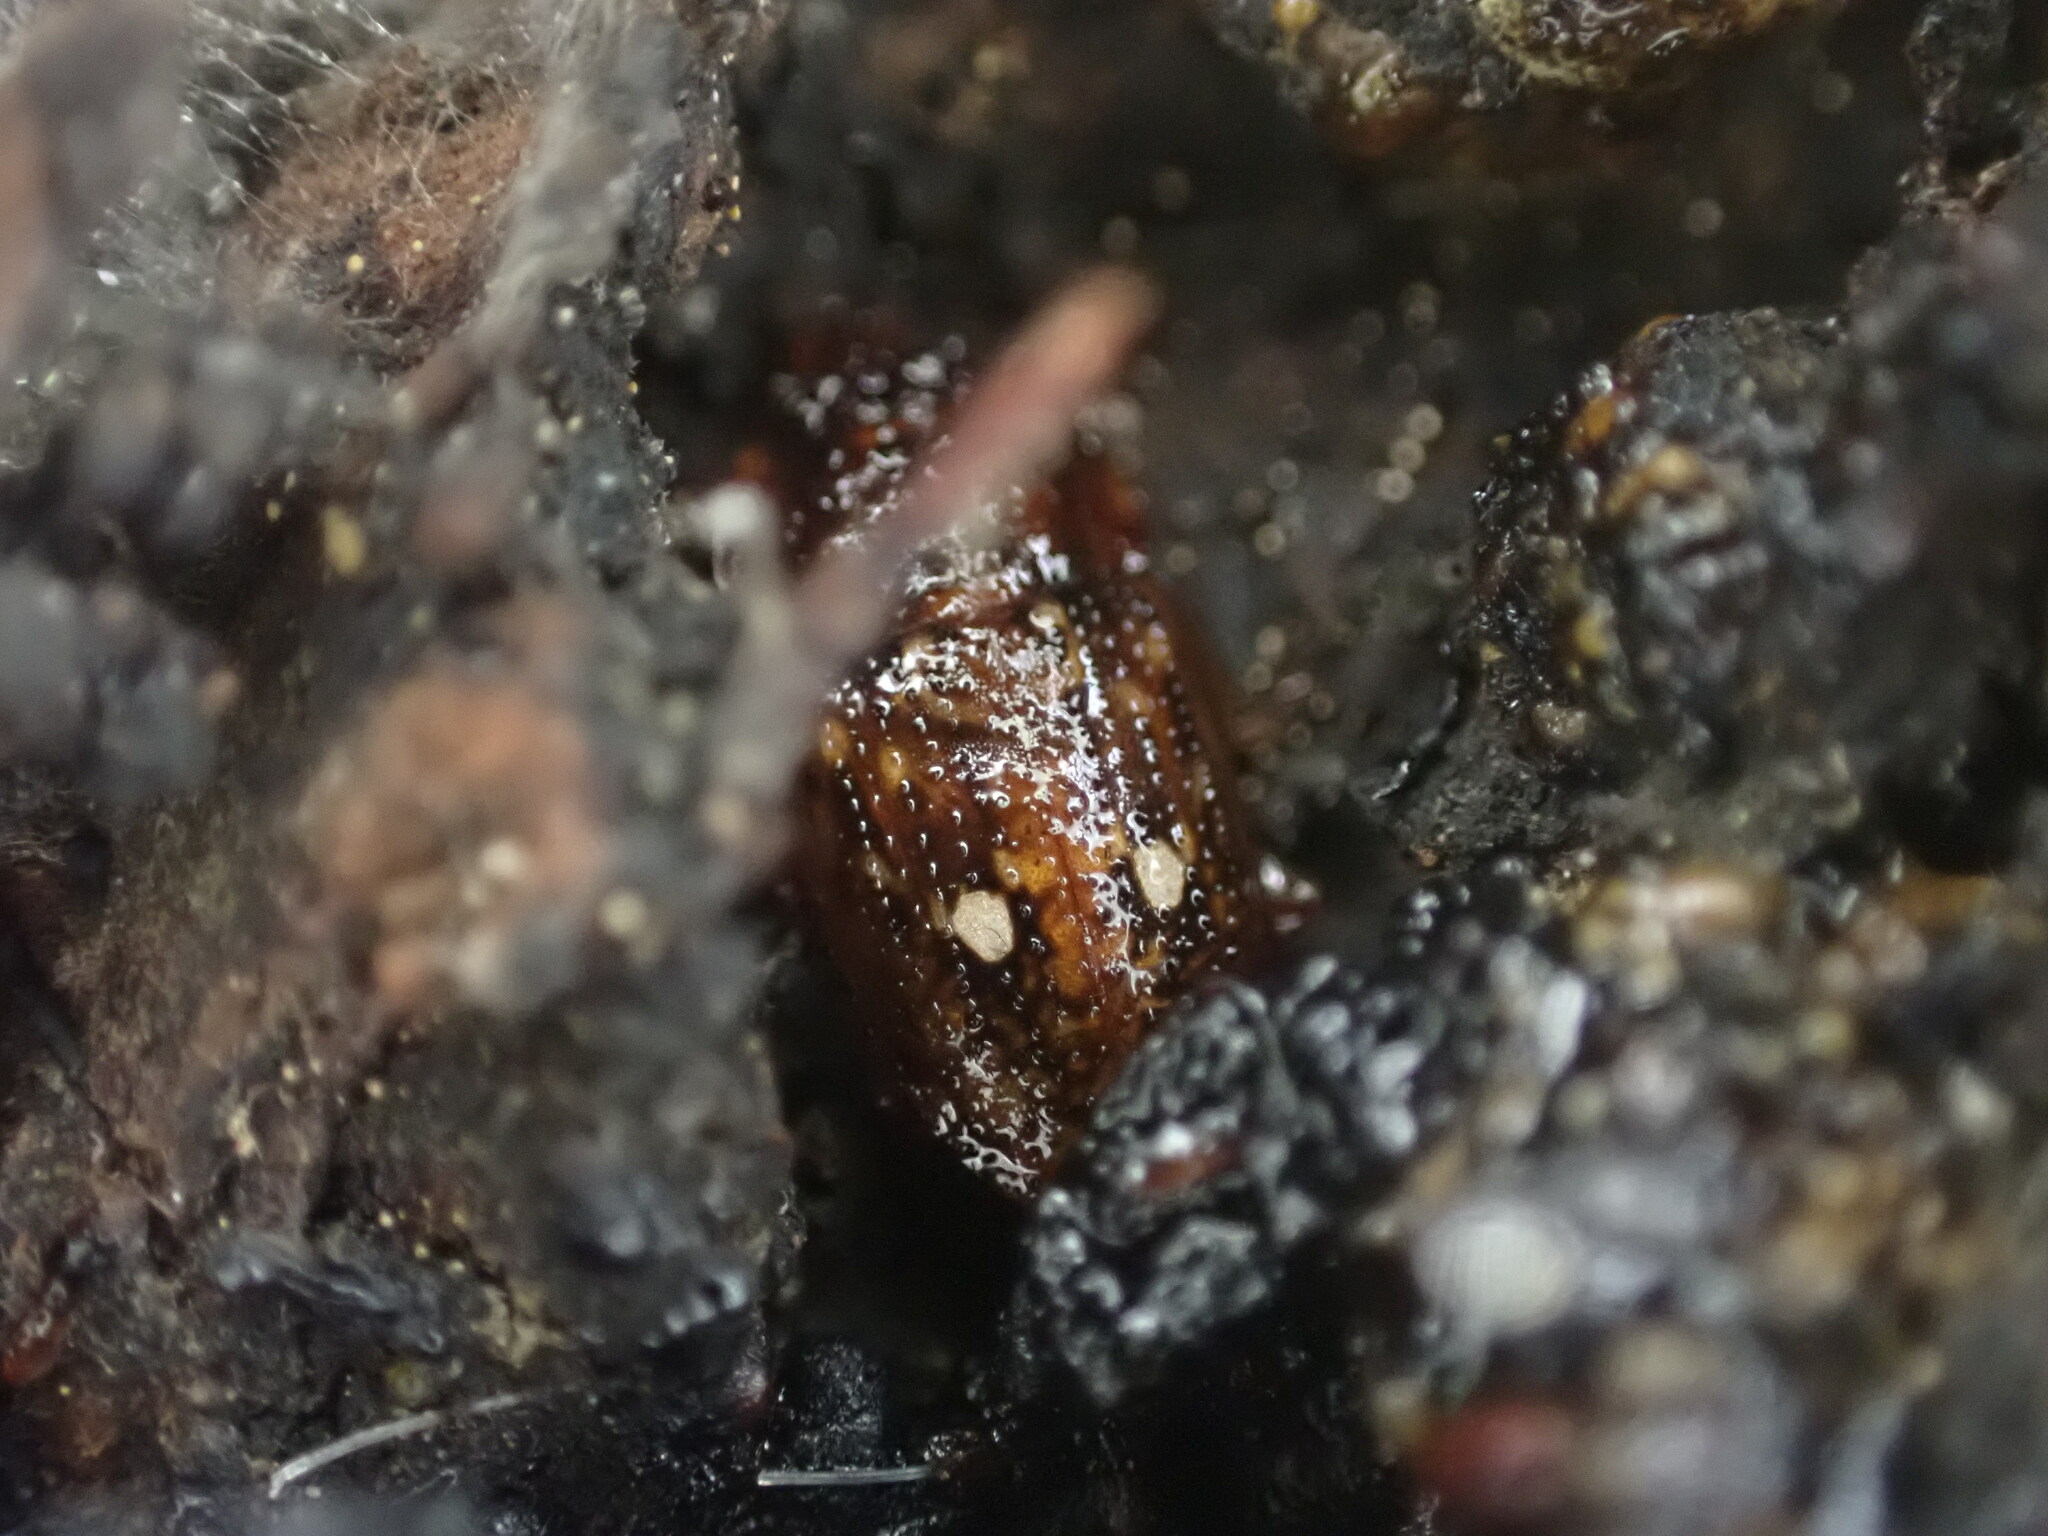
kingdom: Animalia
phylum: Arthropoda
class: Insecta
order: Coleoptera
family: Nitidulidae
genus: Soronia
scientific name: Soronia
